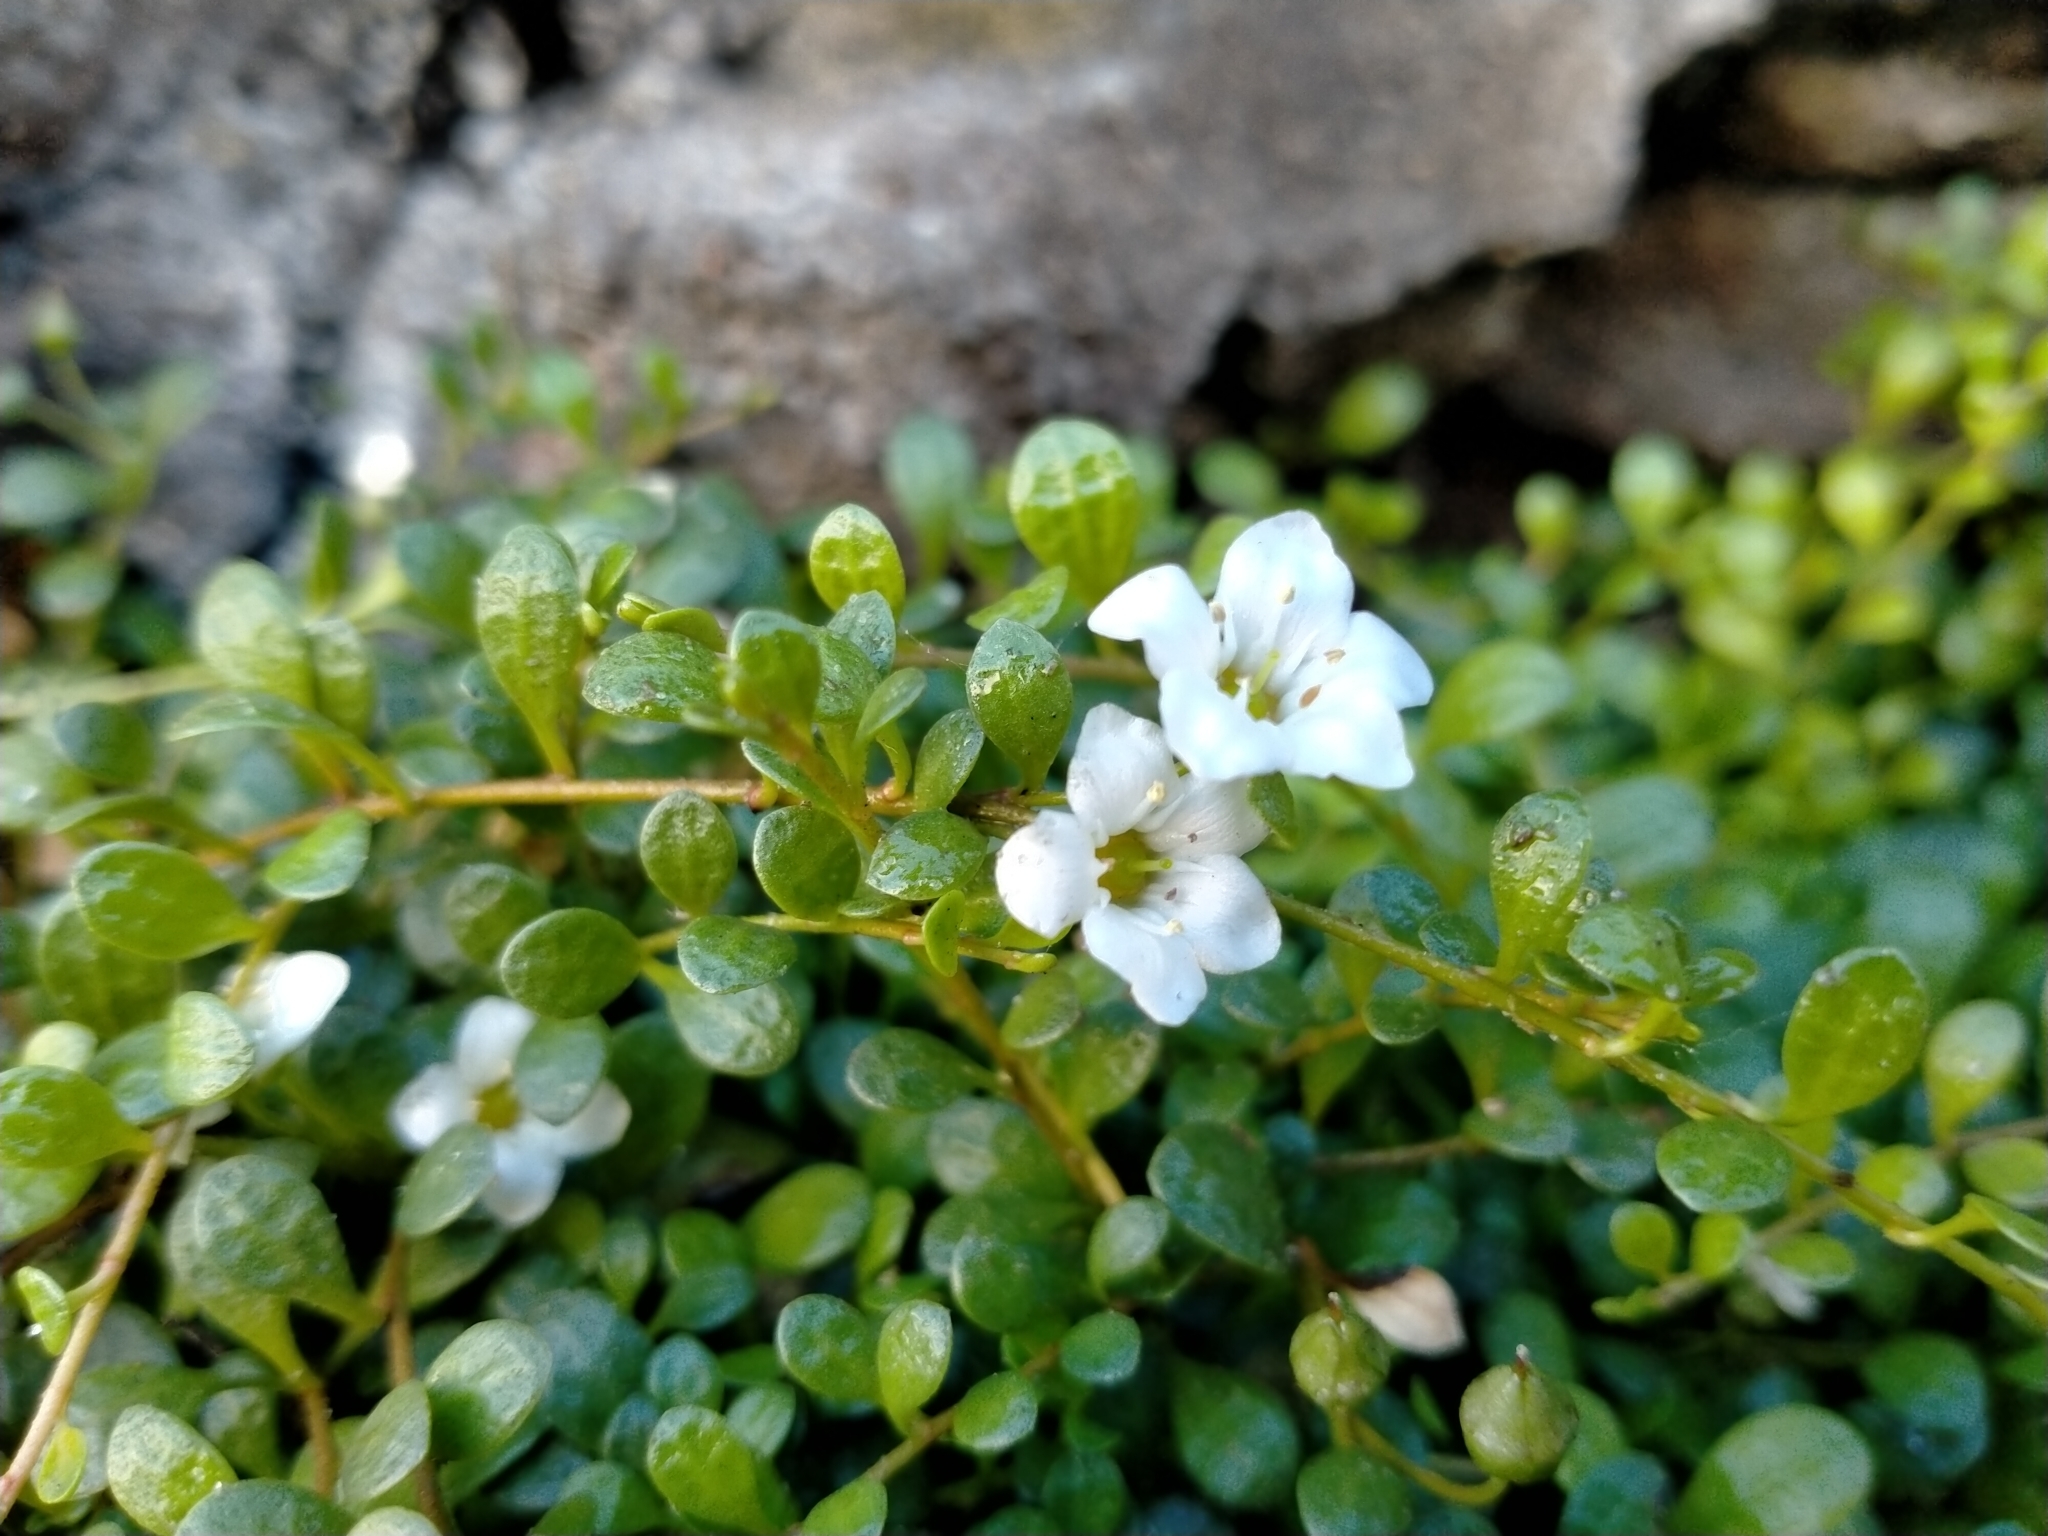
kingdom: Plantae
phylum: Tracheophyta
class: Magnoliopsida
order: Ericales
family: Primulaceae
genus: Samolus
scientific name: Samolus repens
